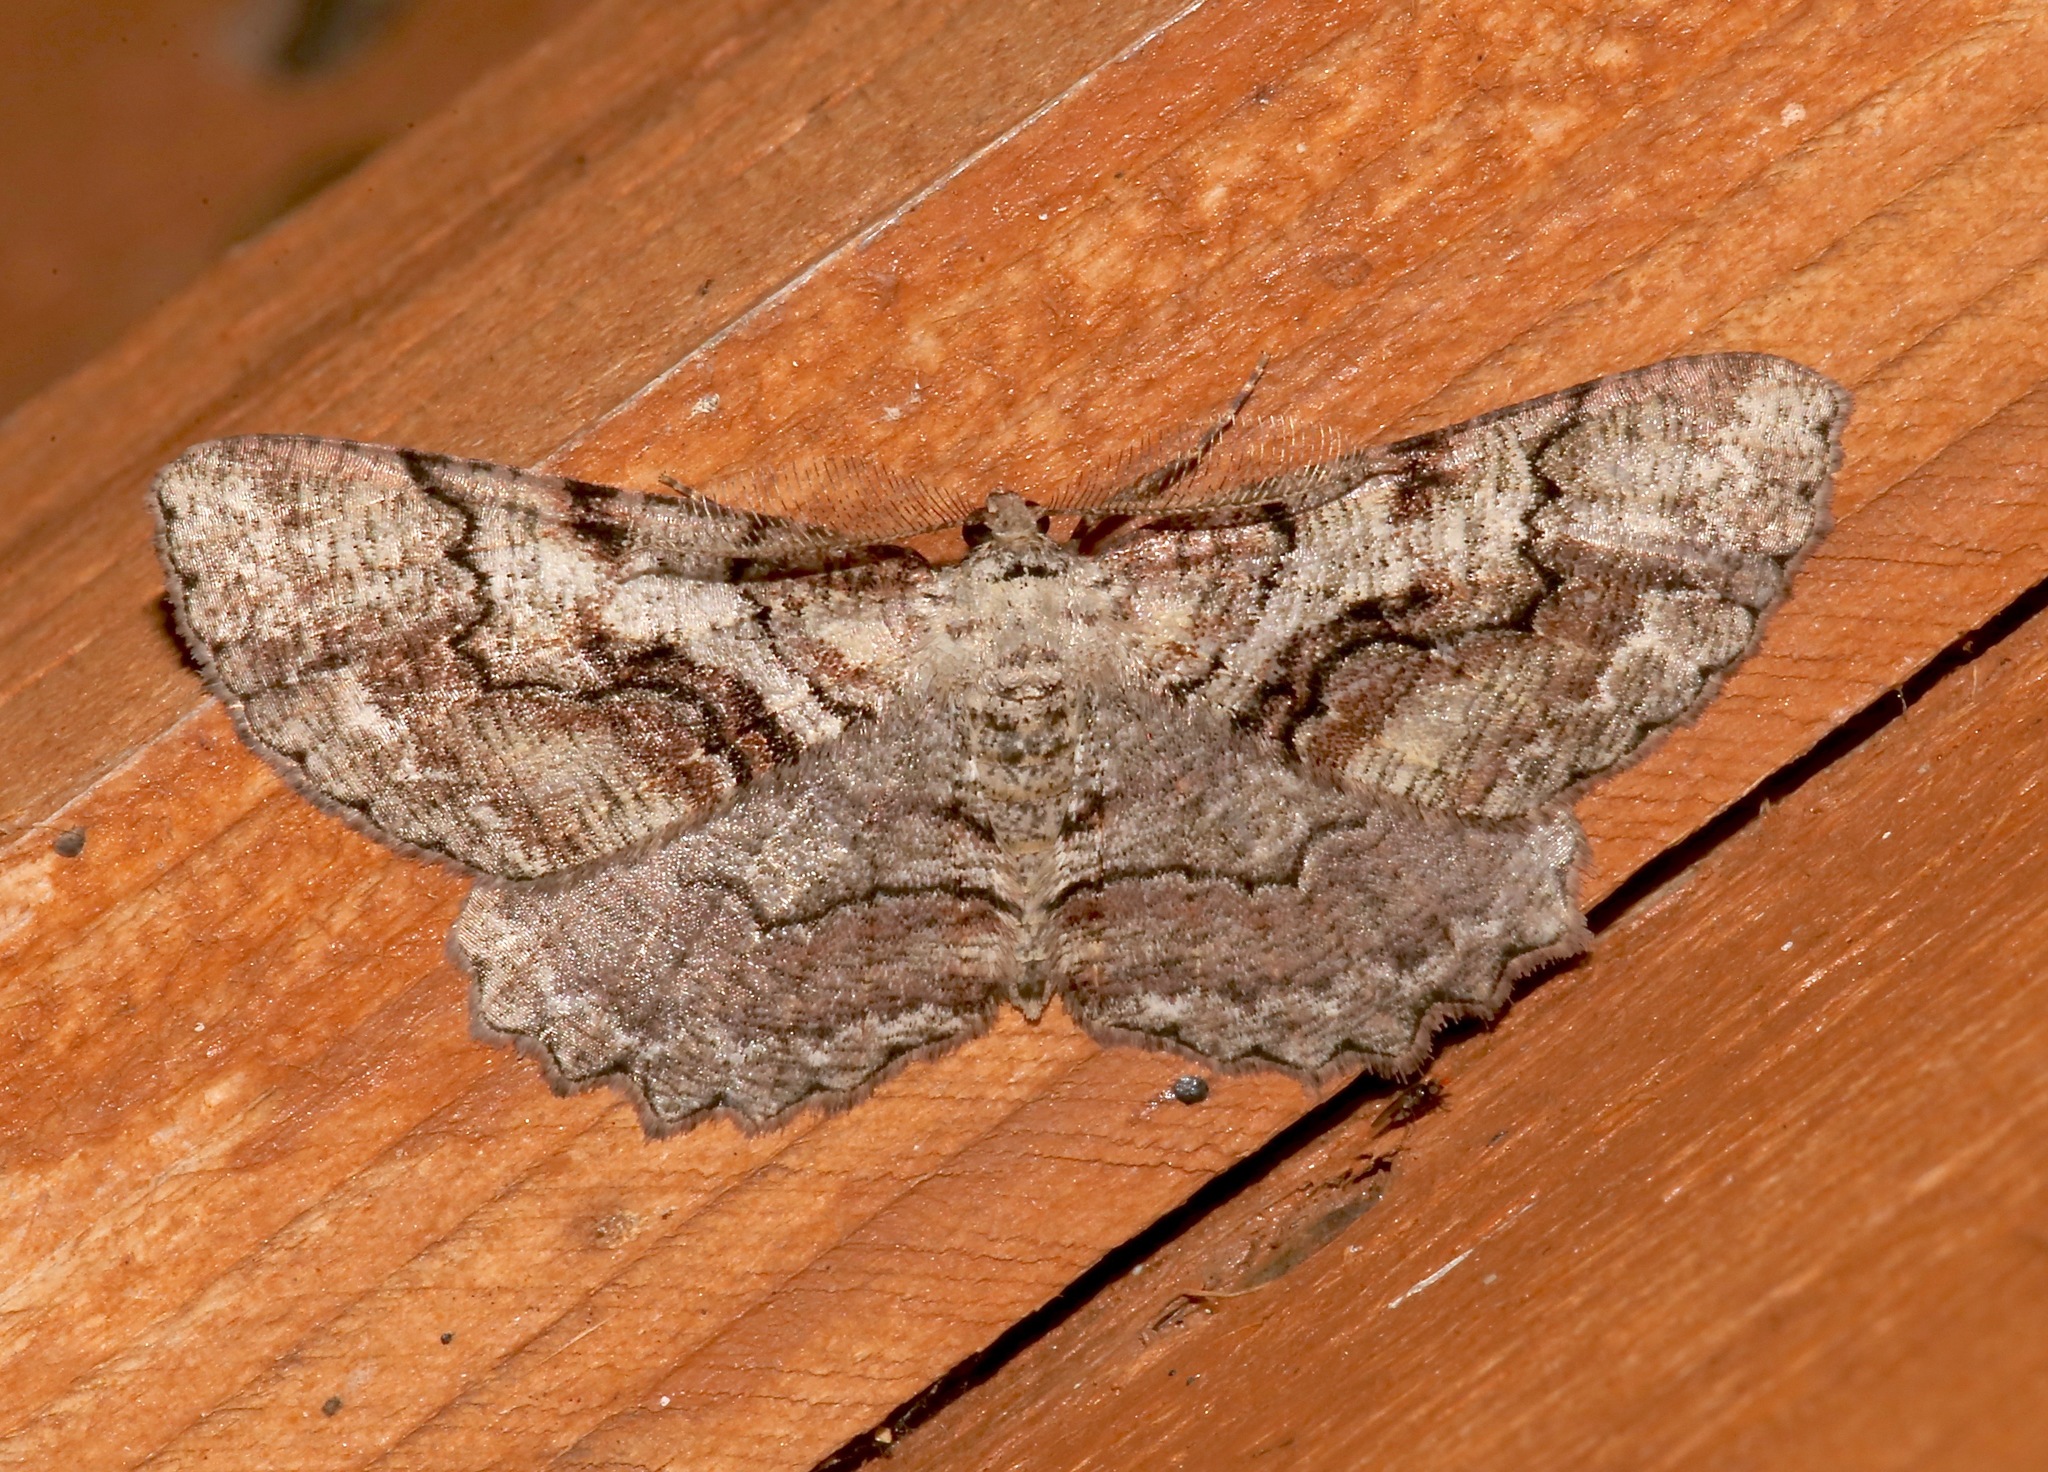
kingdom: Animalia
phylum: Arthropoda
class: Insecta
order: Lepidoptera
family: Geometridae
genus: Cymatophora
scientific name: Cymatophora approximaria
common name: Giant gray moth
